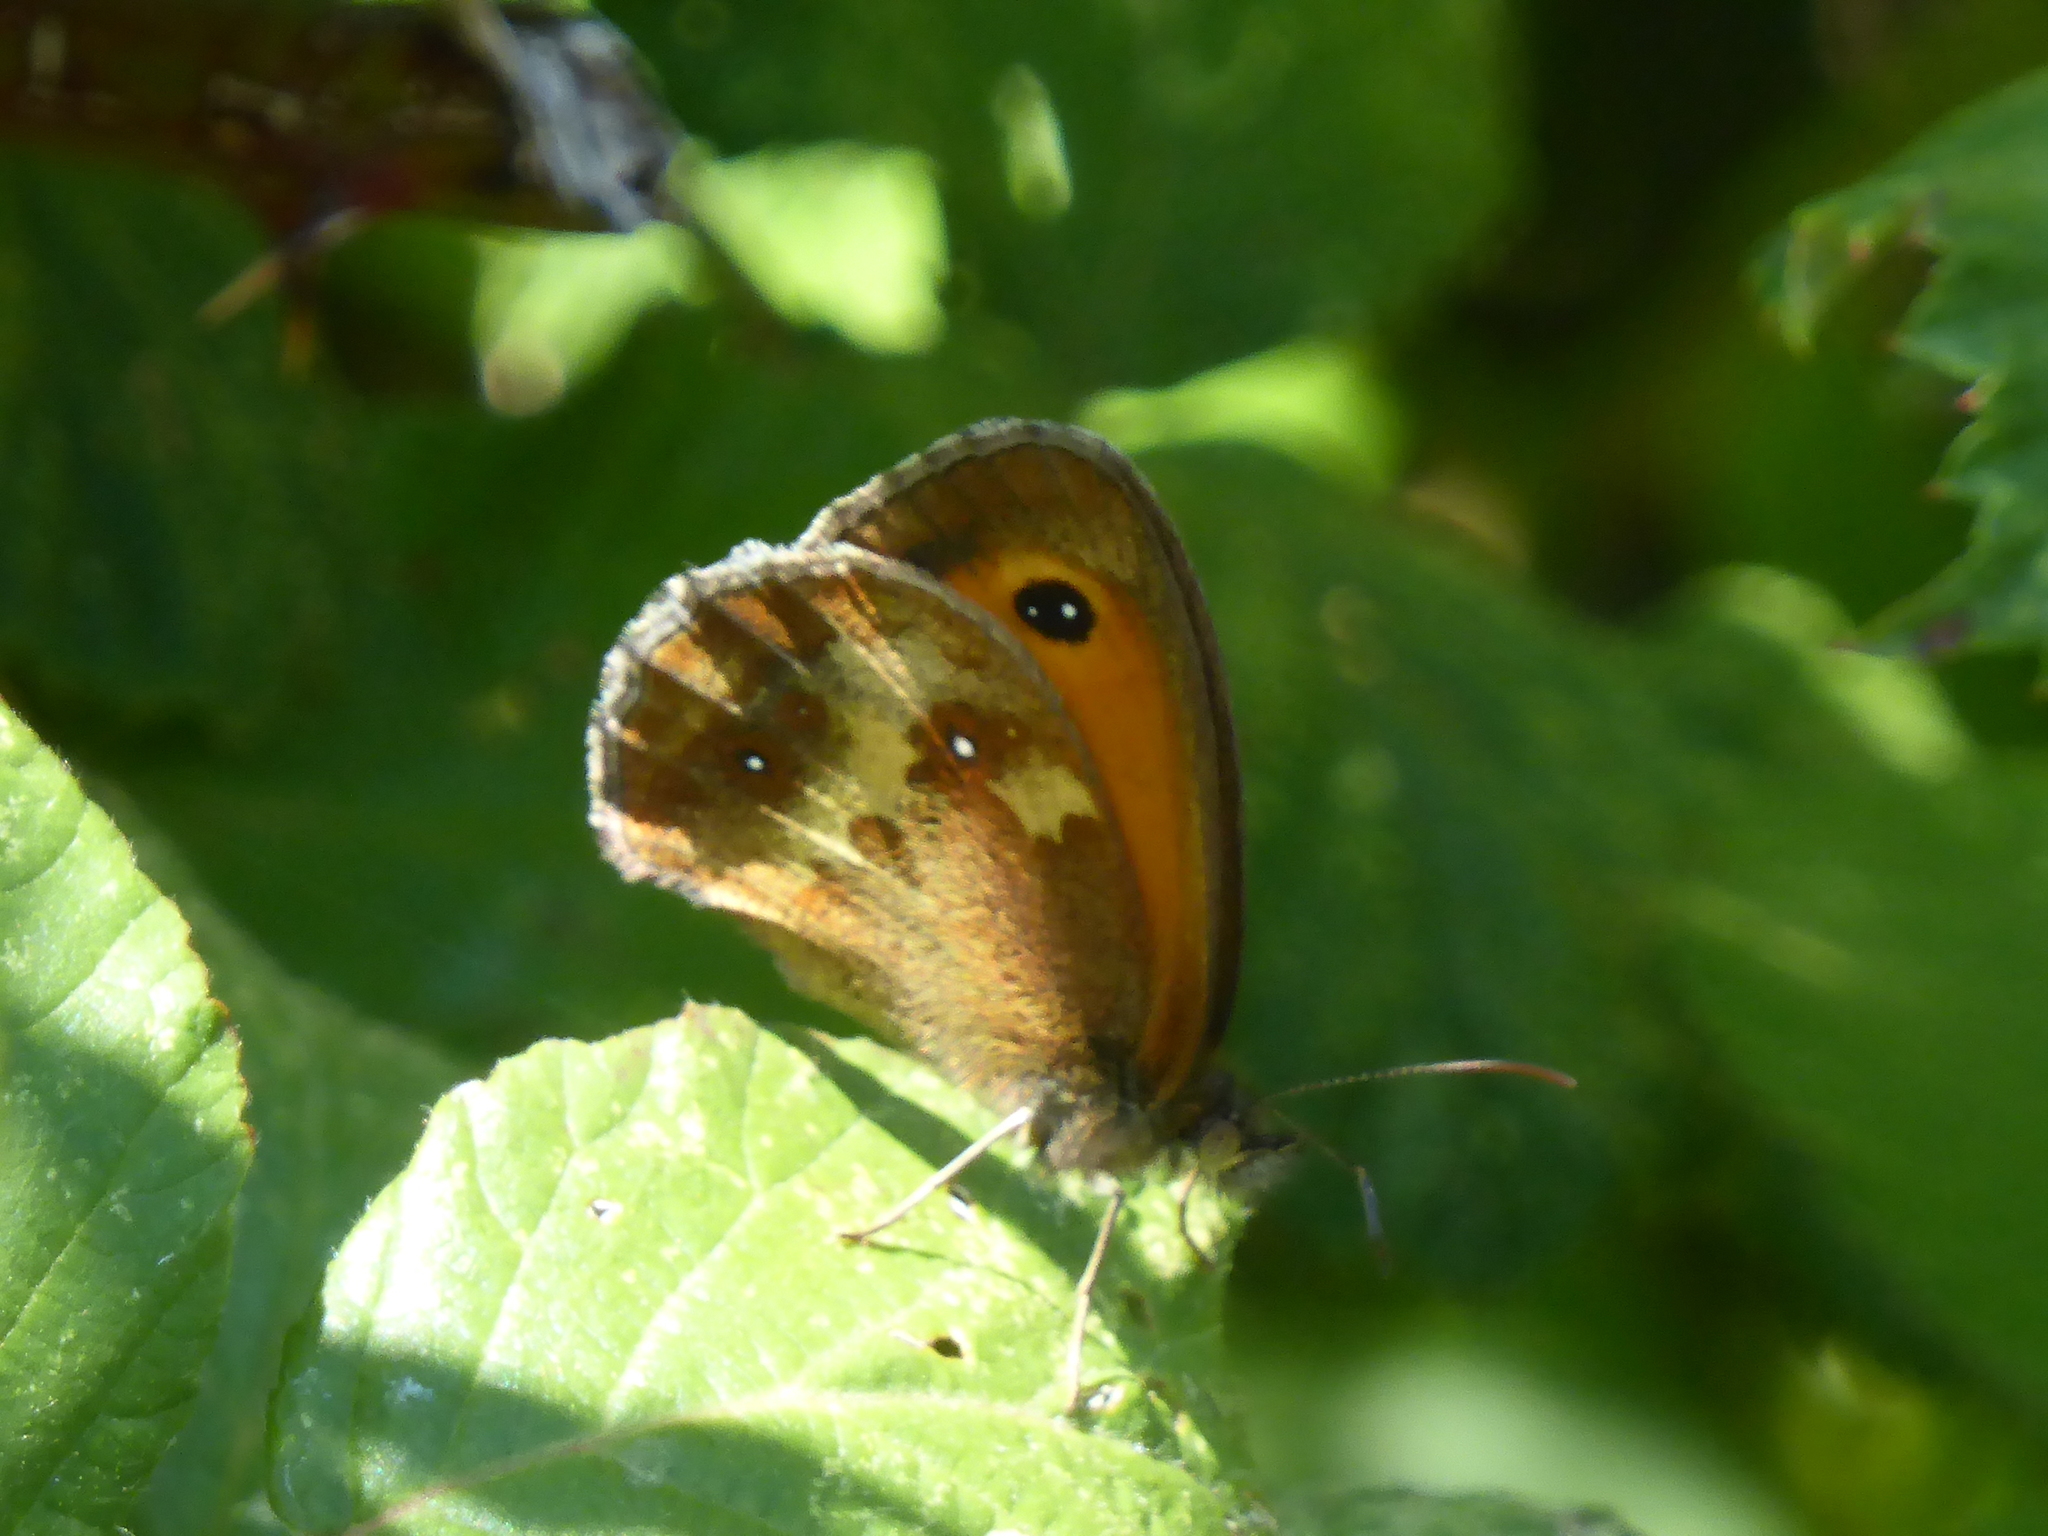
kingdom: Animalia
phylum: Arthropoda
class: Insecta
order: Lepidoptera
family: Nymphalidae
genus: Pyronia
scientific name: Pyronia tithonus
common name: Gatekeeper
